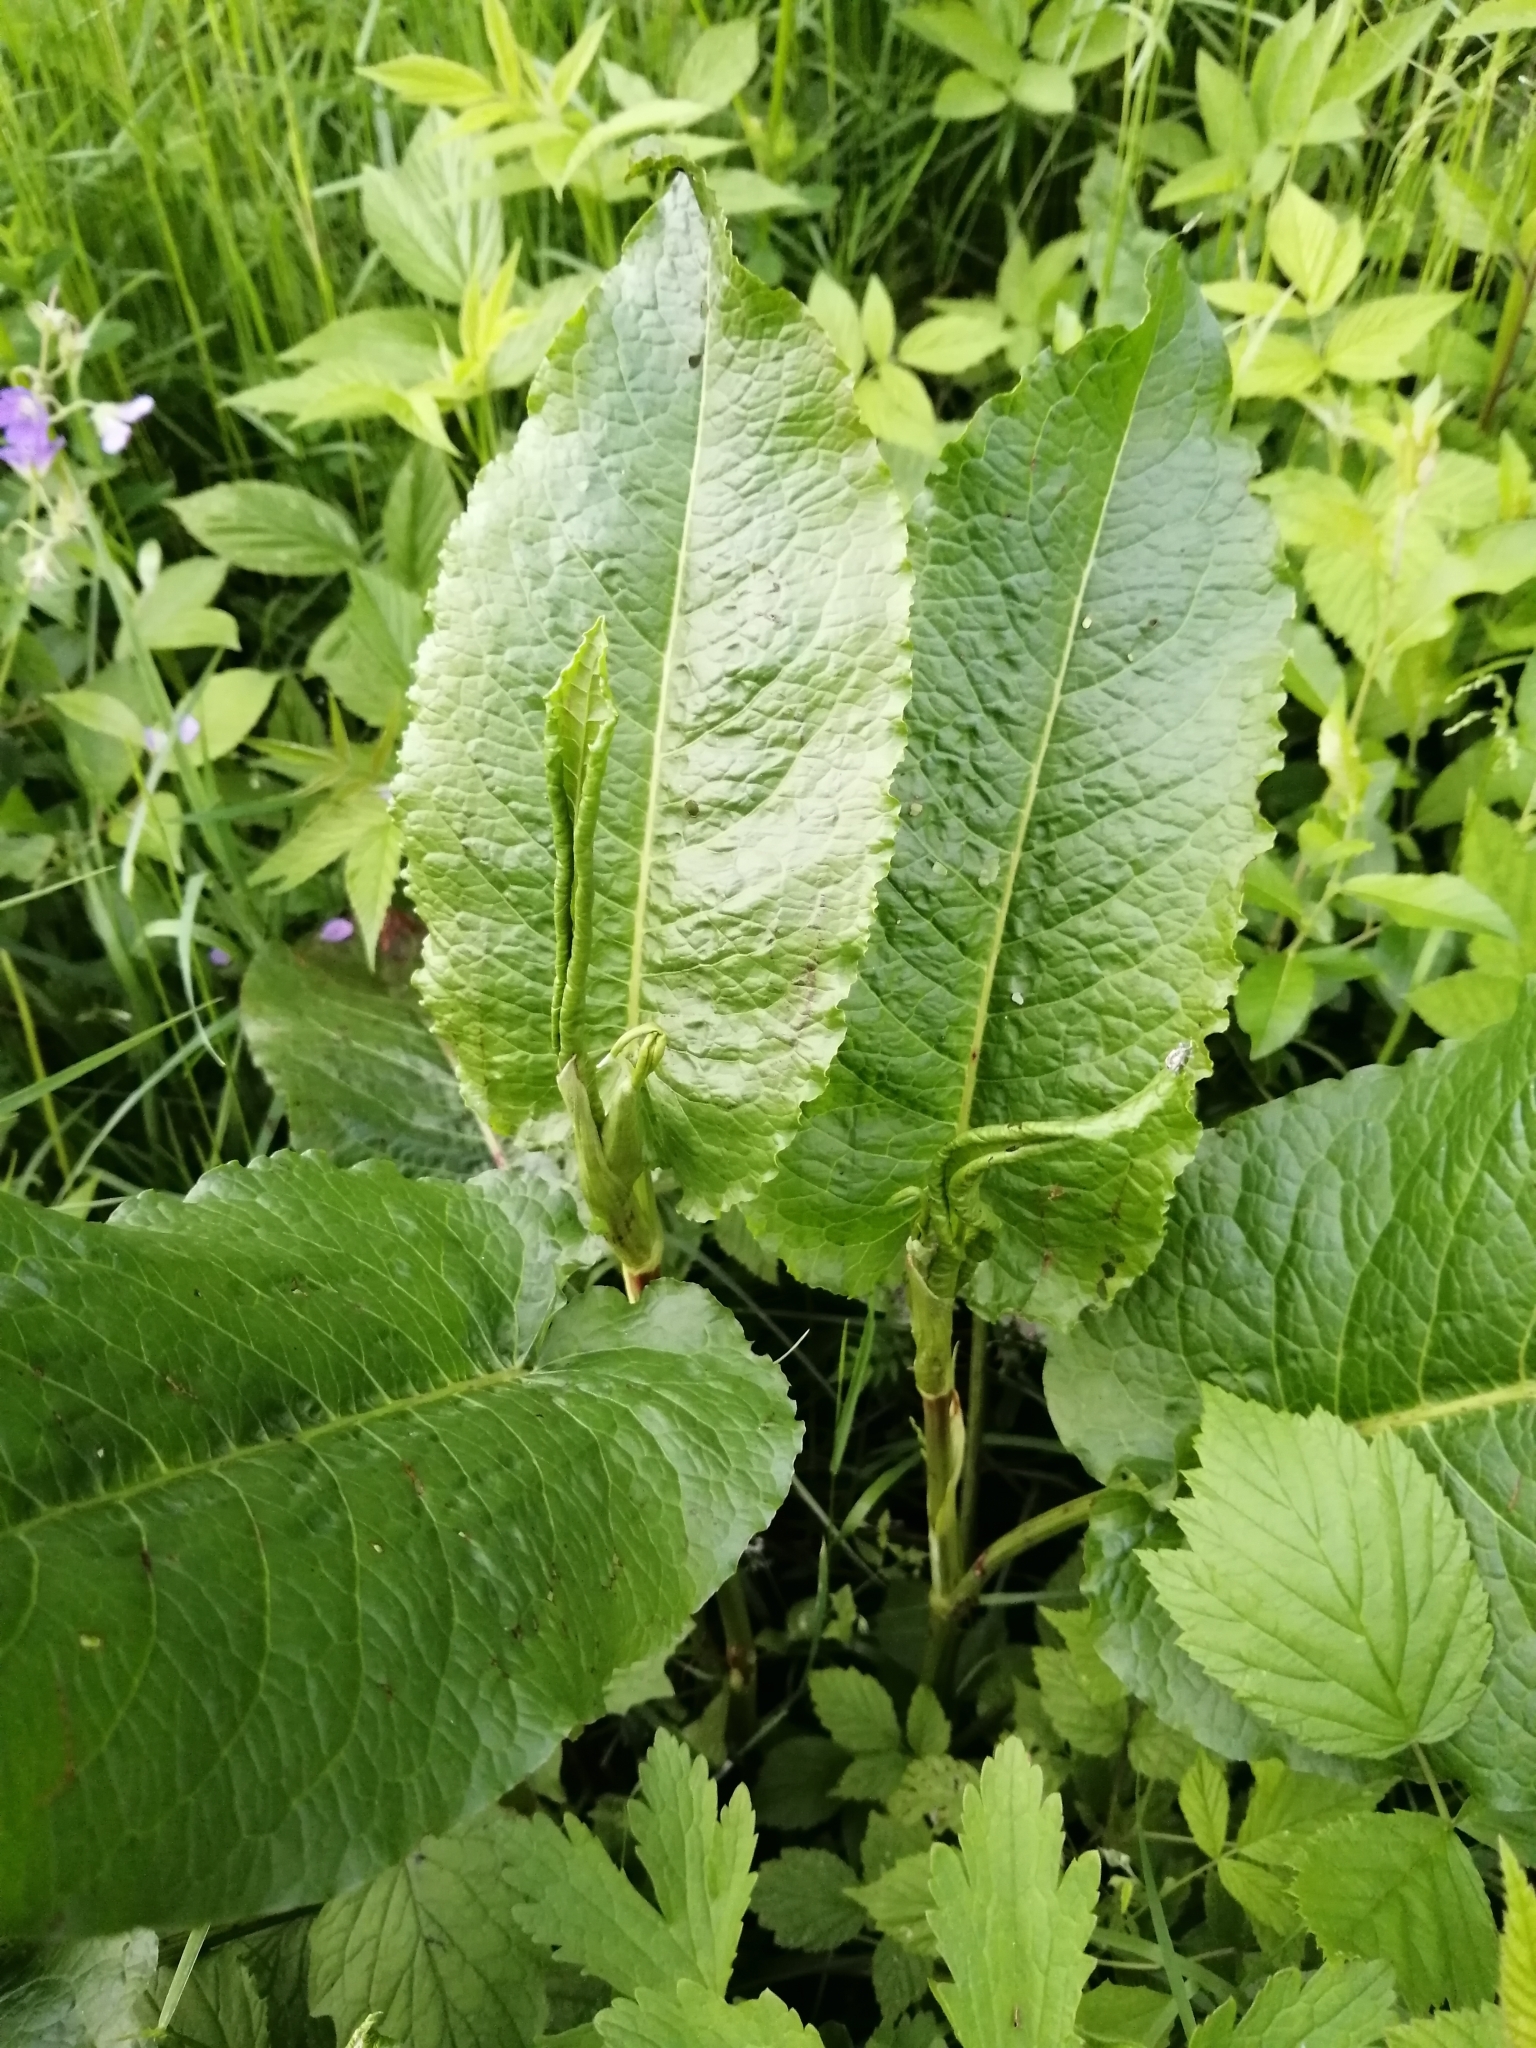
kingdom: Plantae
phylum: Tracheophyta
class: Magnoliopsida
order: Caryophyllales
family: Polygonaceae
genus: Rumex
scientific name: Rumex obtusifolius
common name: Bitter dock
